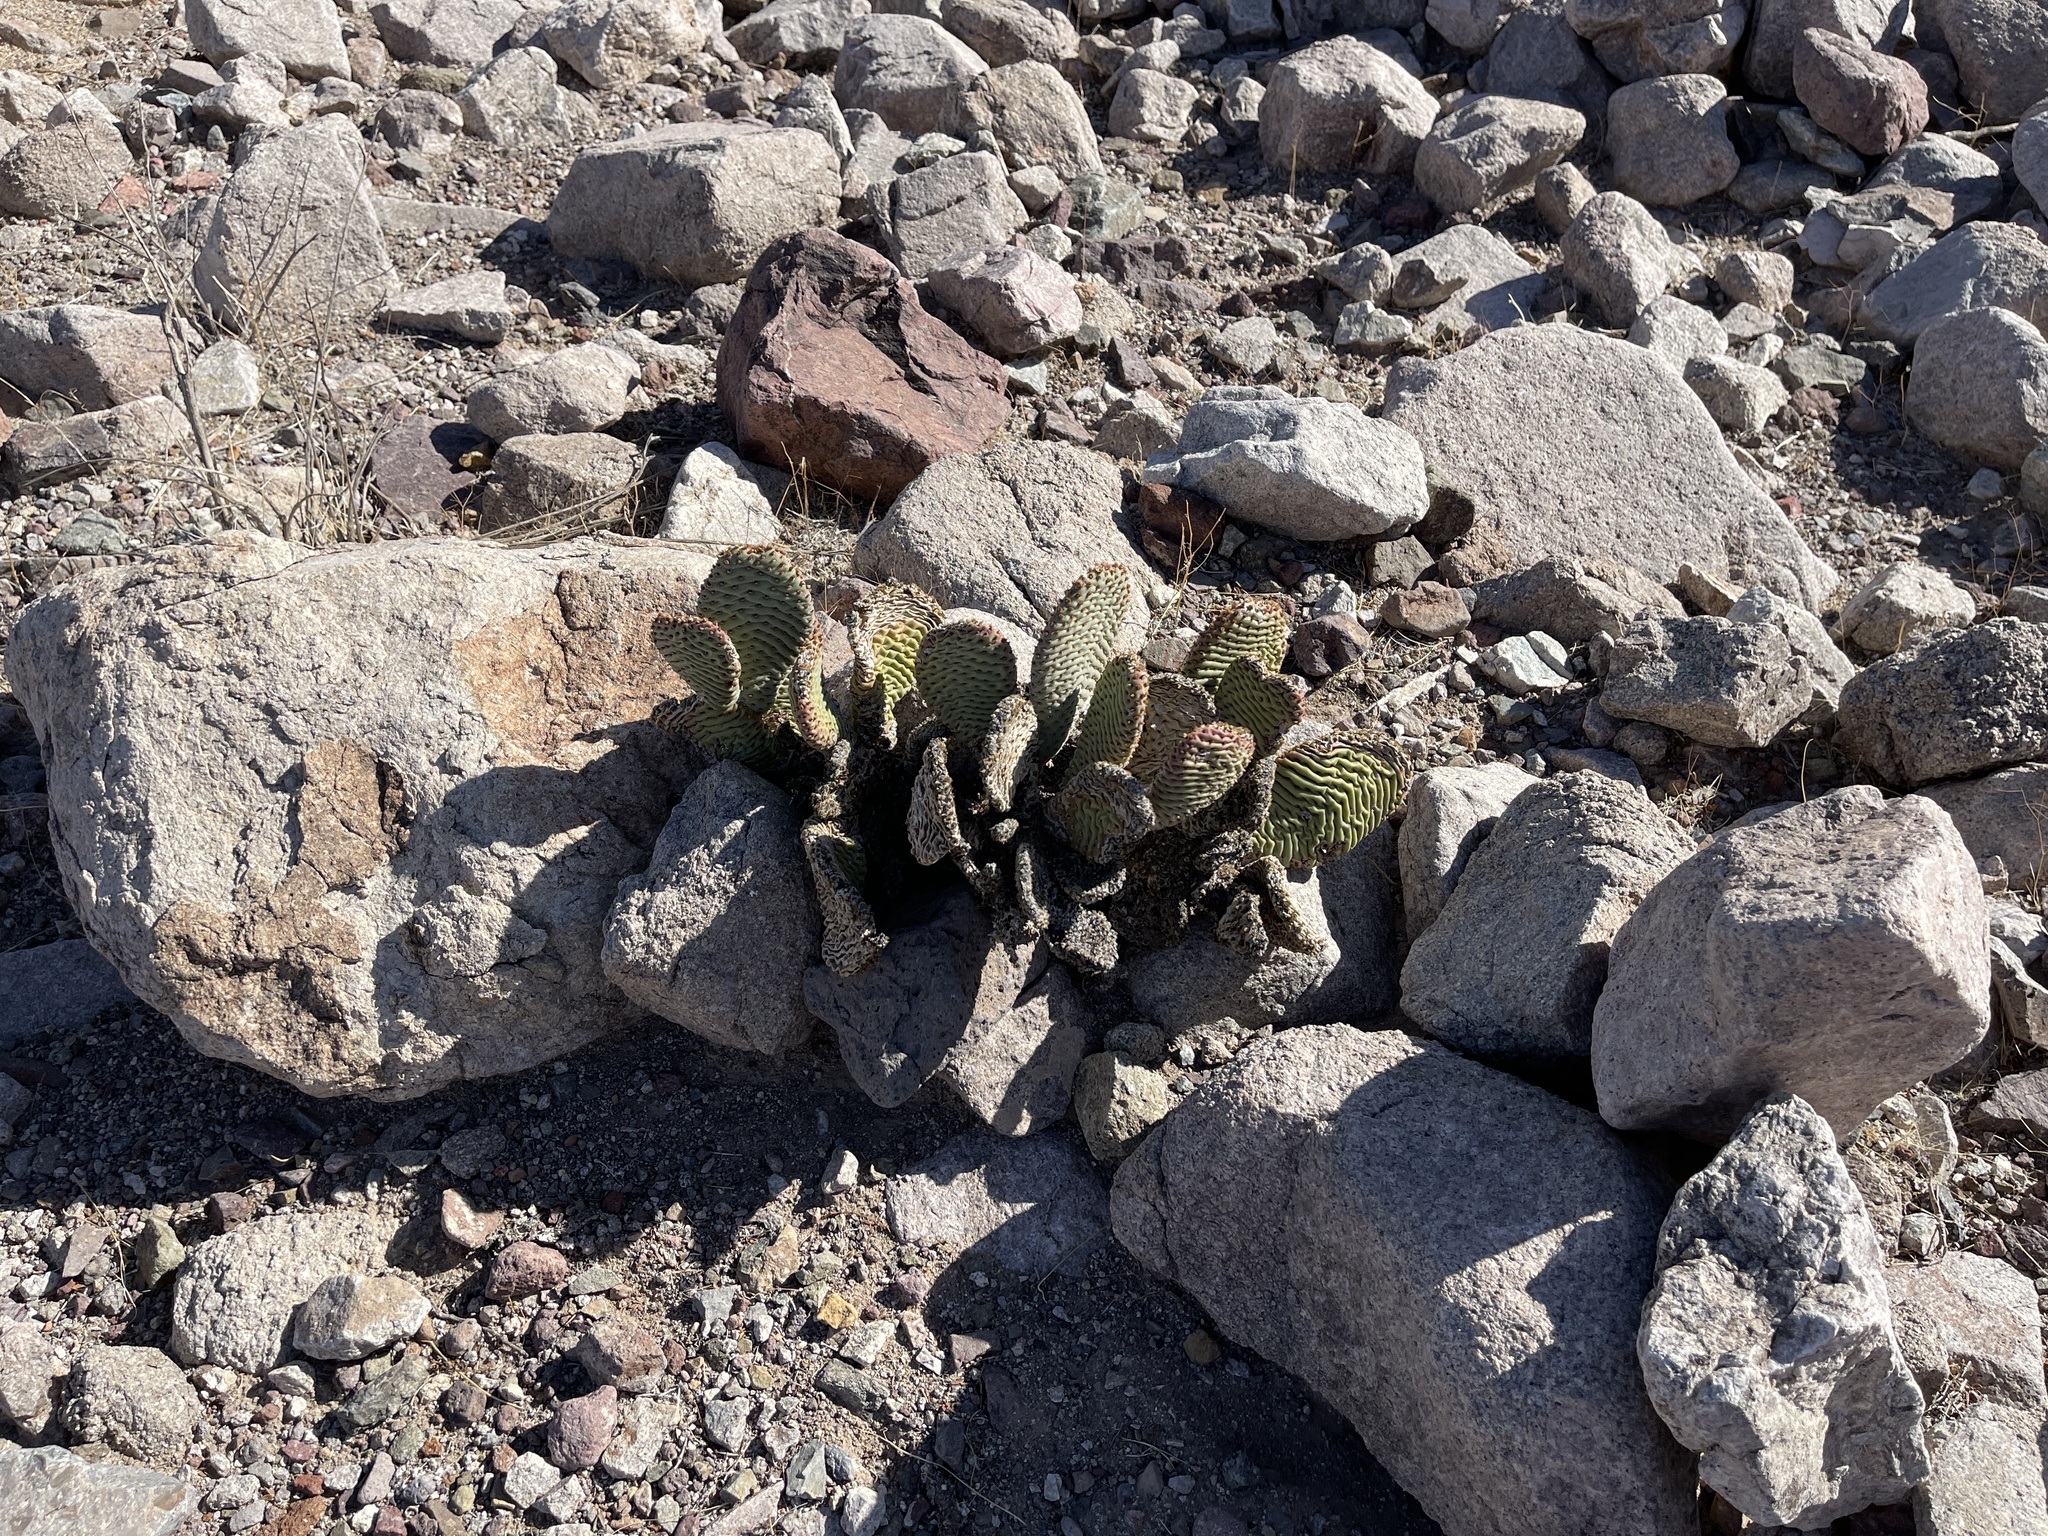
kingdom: Plantae
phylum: Tracheophyta
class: Magnoliopsida
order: Caryophyllales
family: Cactaceae
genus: Opuntia
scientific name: Opuntia basilaris
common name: Beavertail prickly-pear
